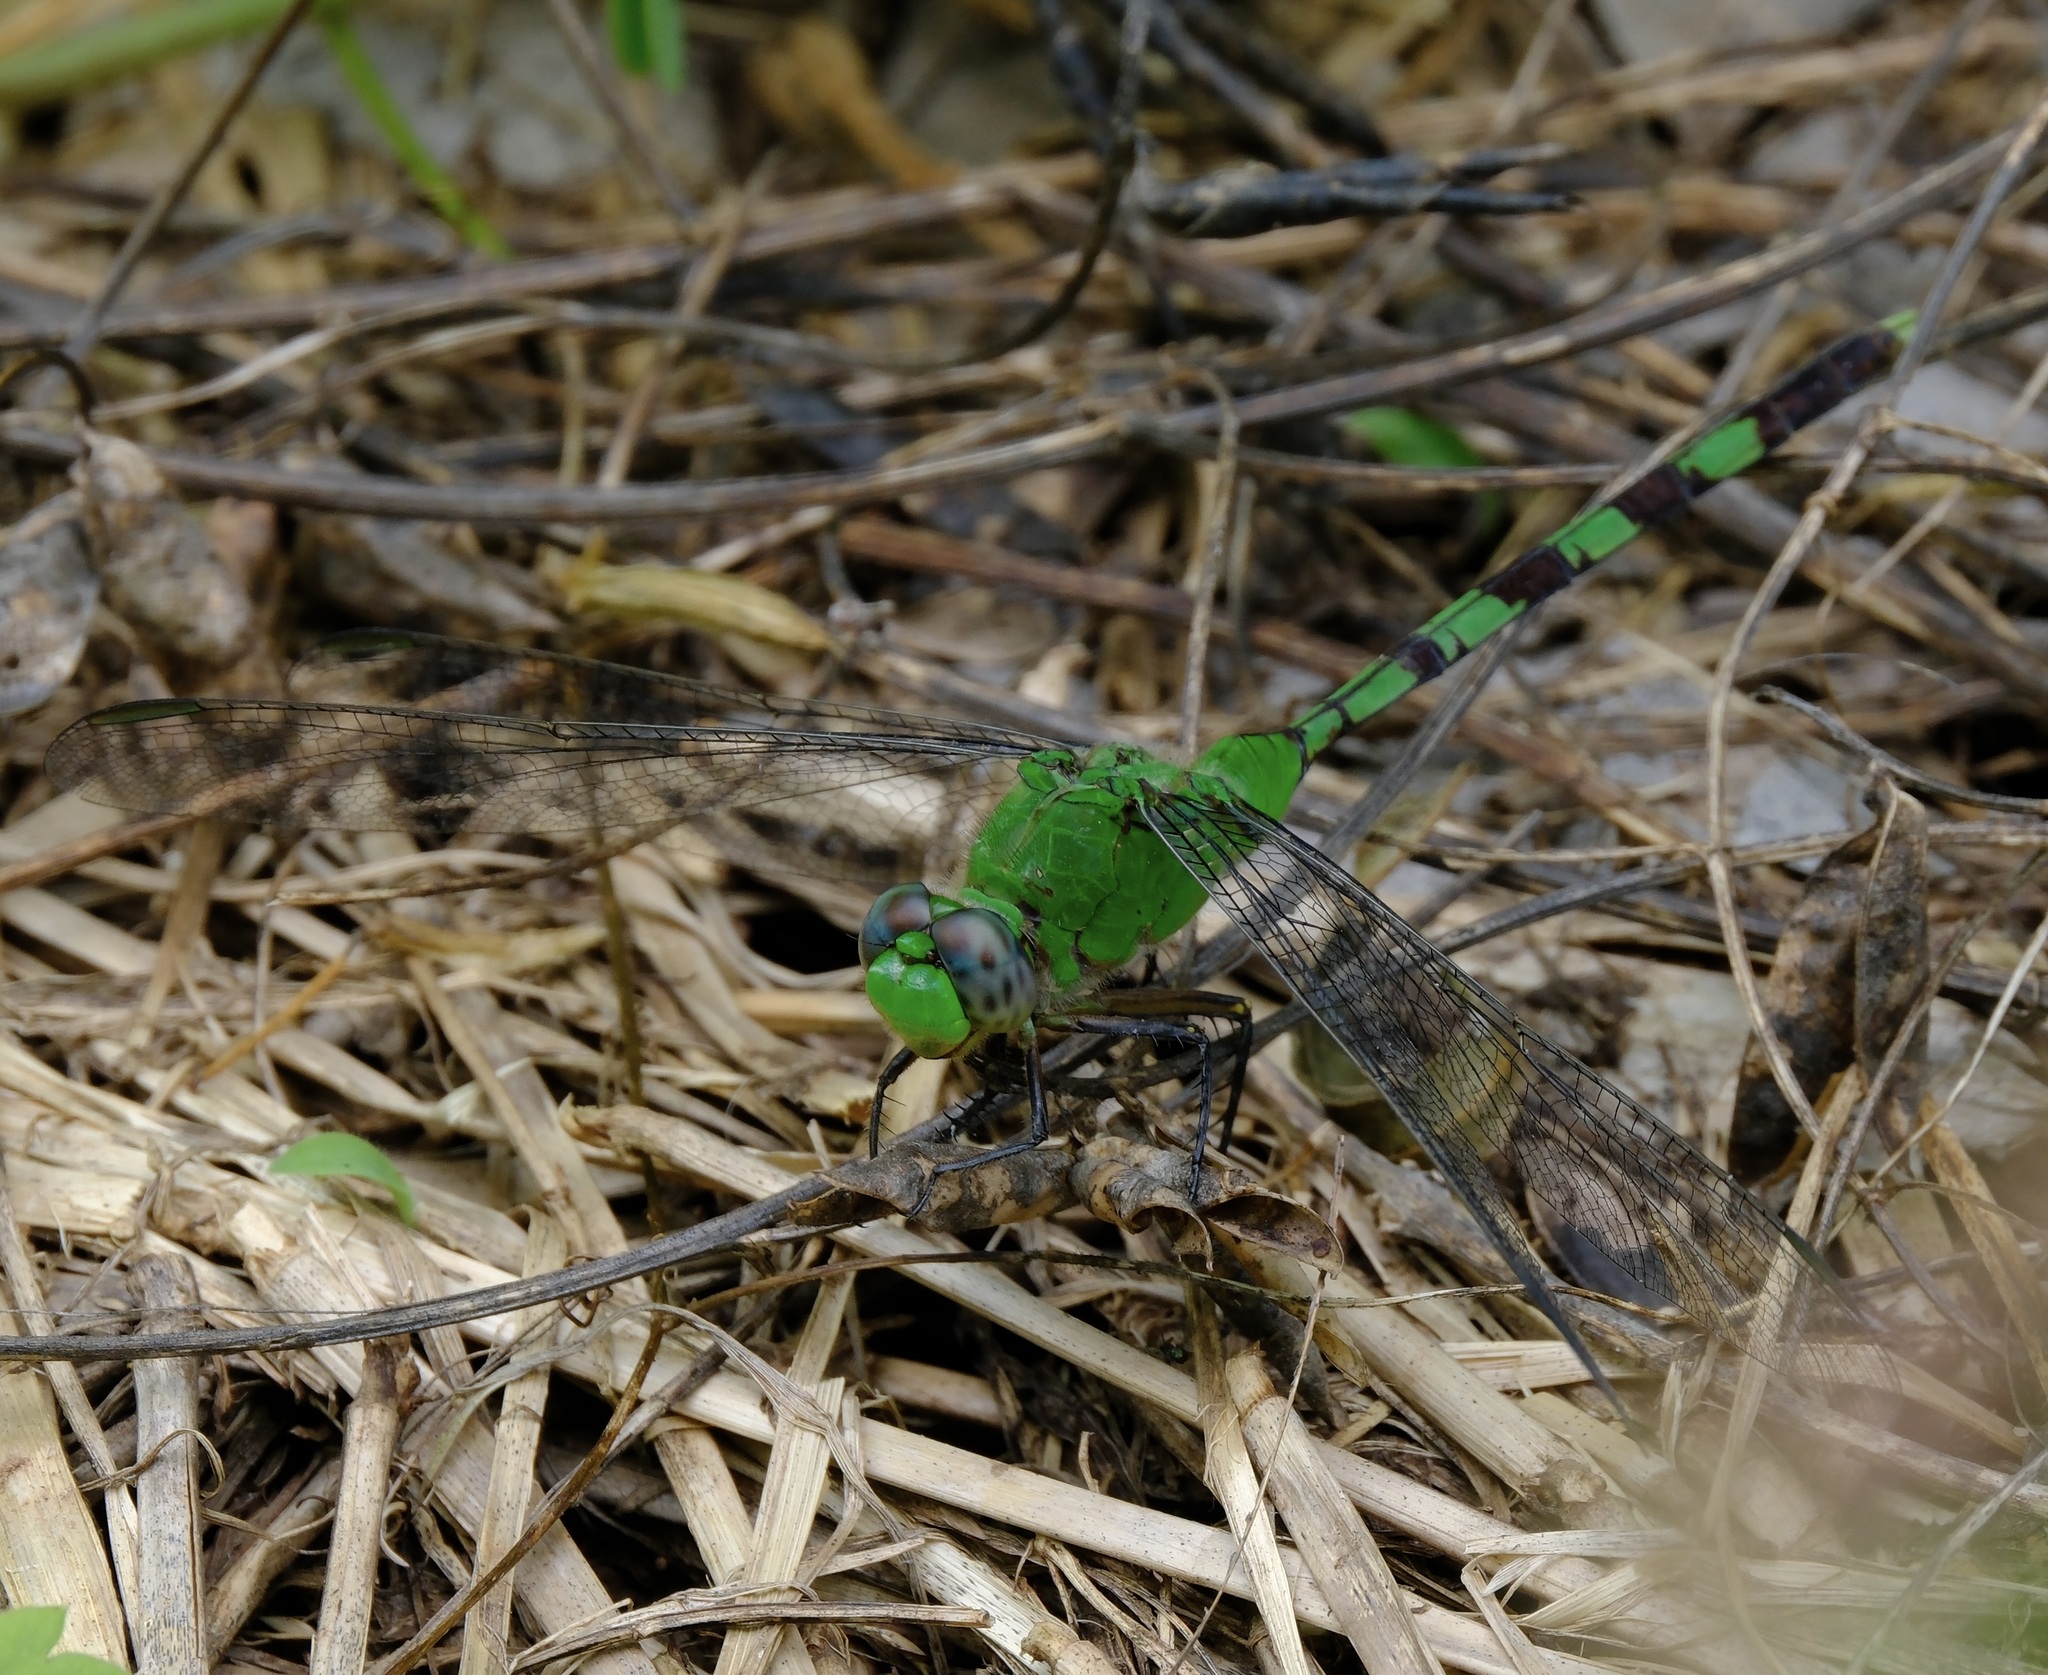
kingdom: Animalia
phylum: Arthropoda
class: Insecta
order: Odonata
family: Libellulidae
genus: Erythemis
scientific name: Erythemis vesiculosa
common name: Great pondhawk
